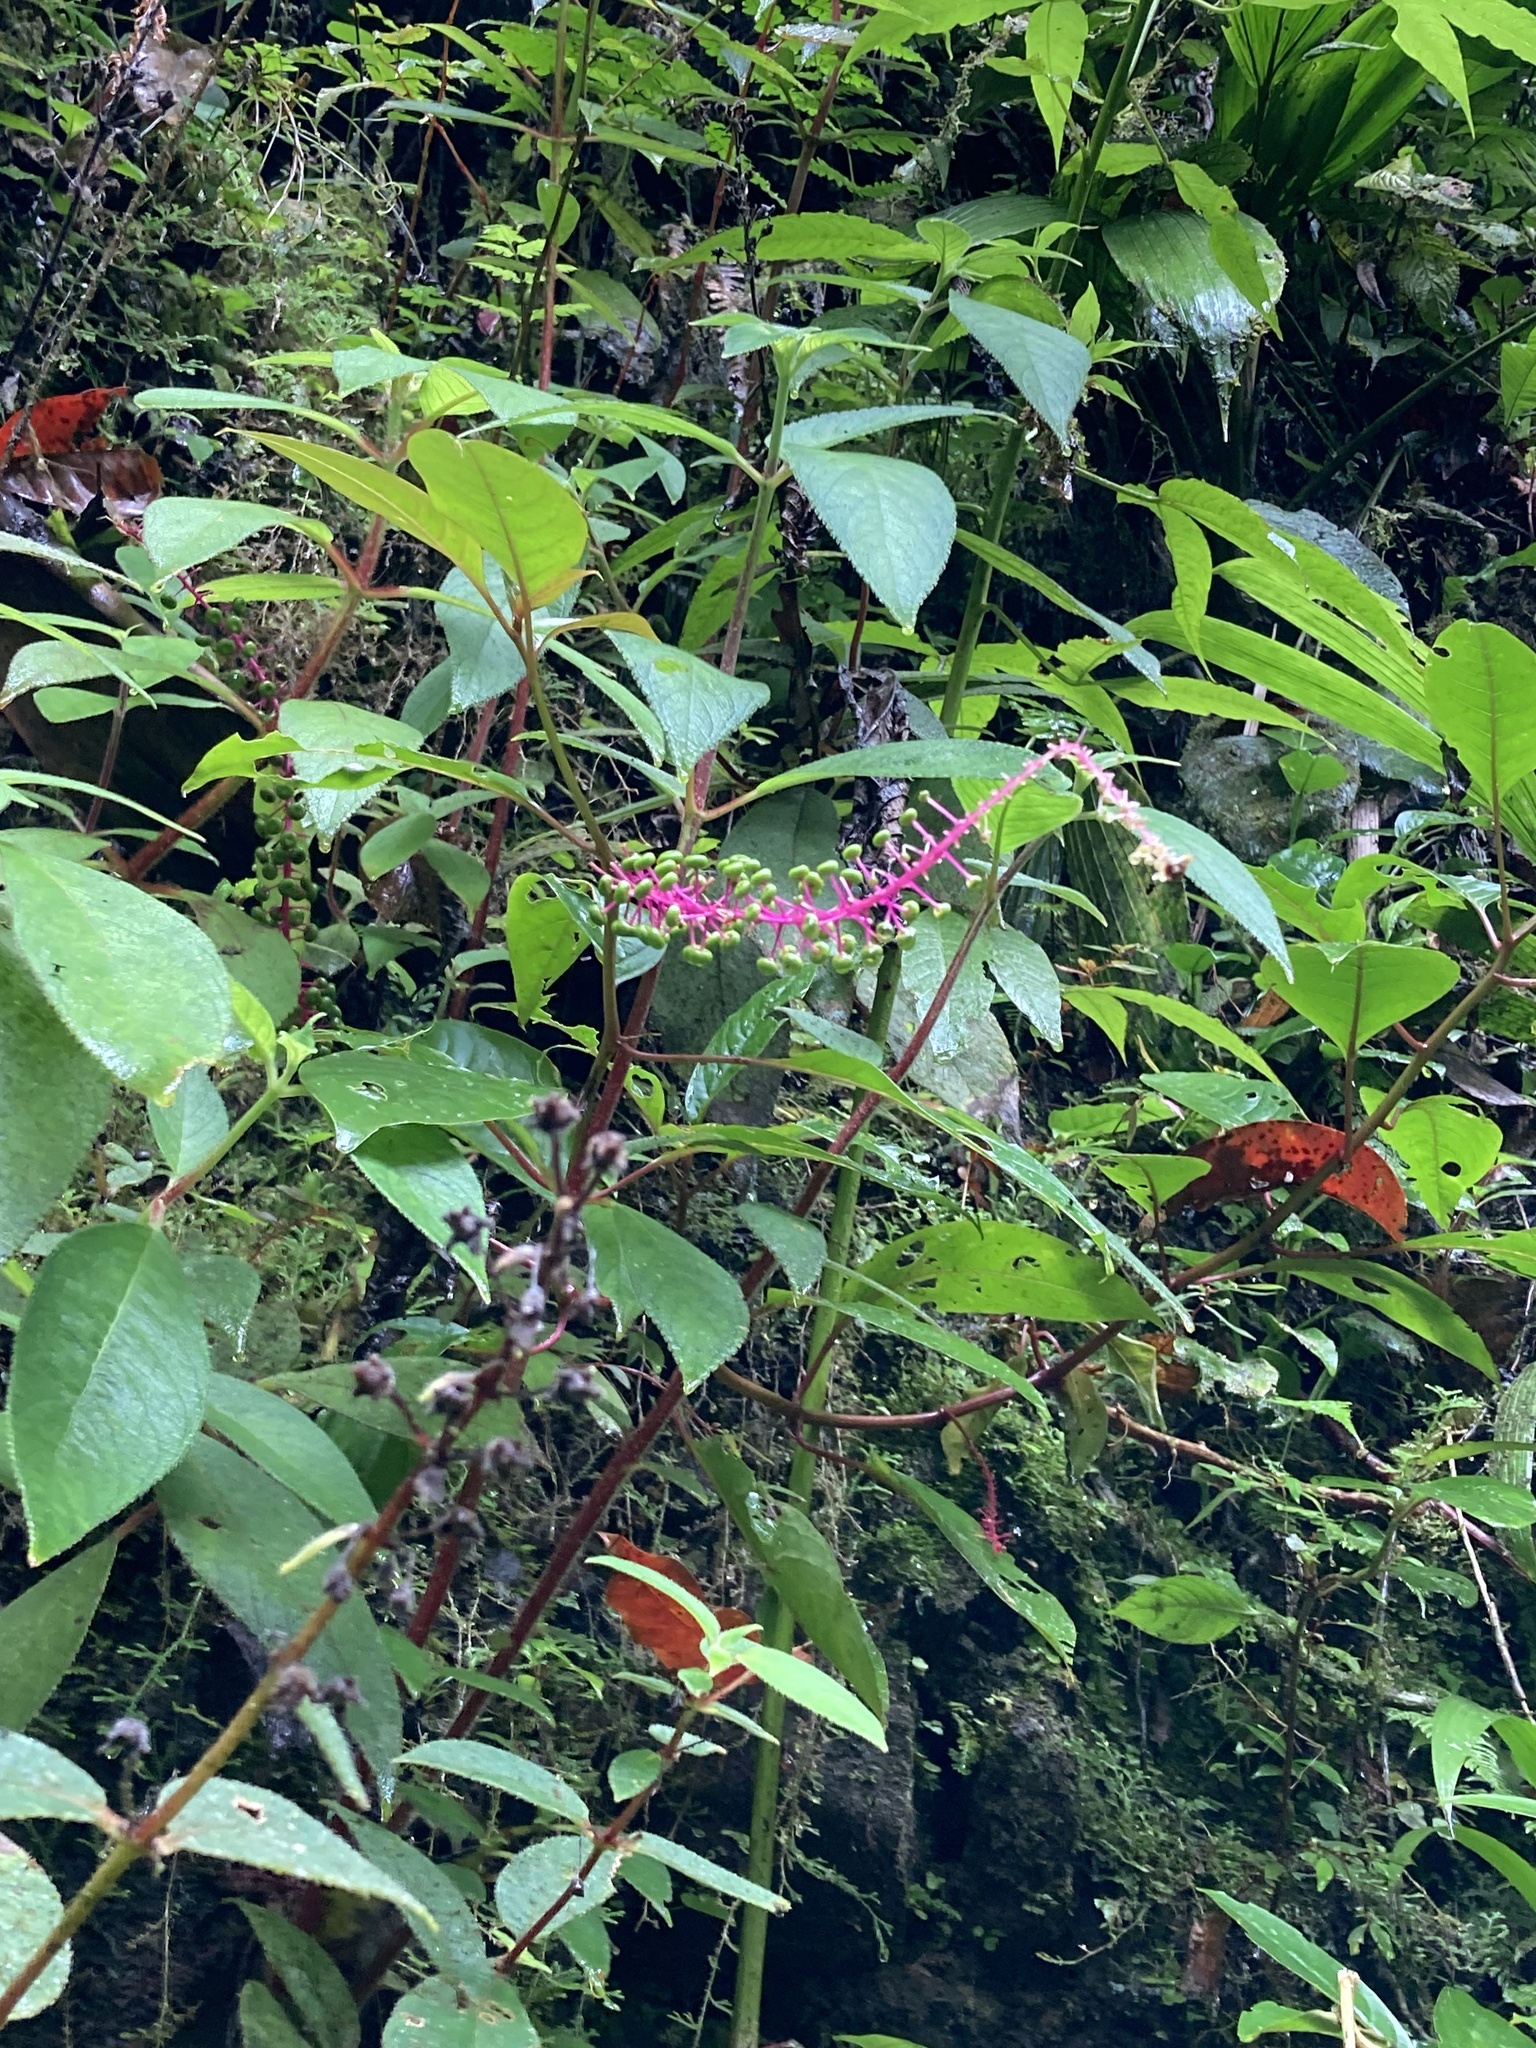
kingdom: Plantae
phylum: Tracheophyta
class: Magnoliopsida
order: Caryophyllales
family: Phytolaccaceae
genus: Phytolacca
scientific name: Phytolacca rivinoides
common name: Venezuelan pokeweed
